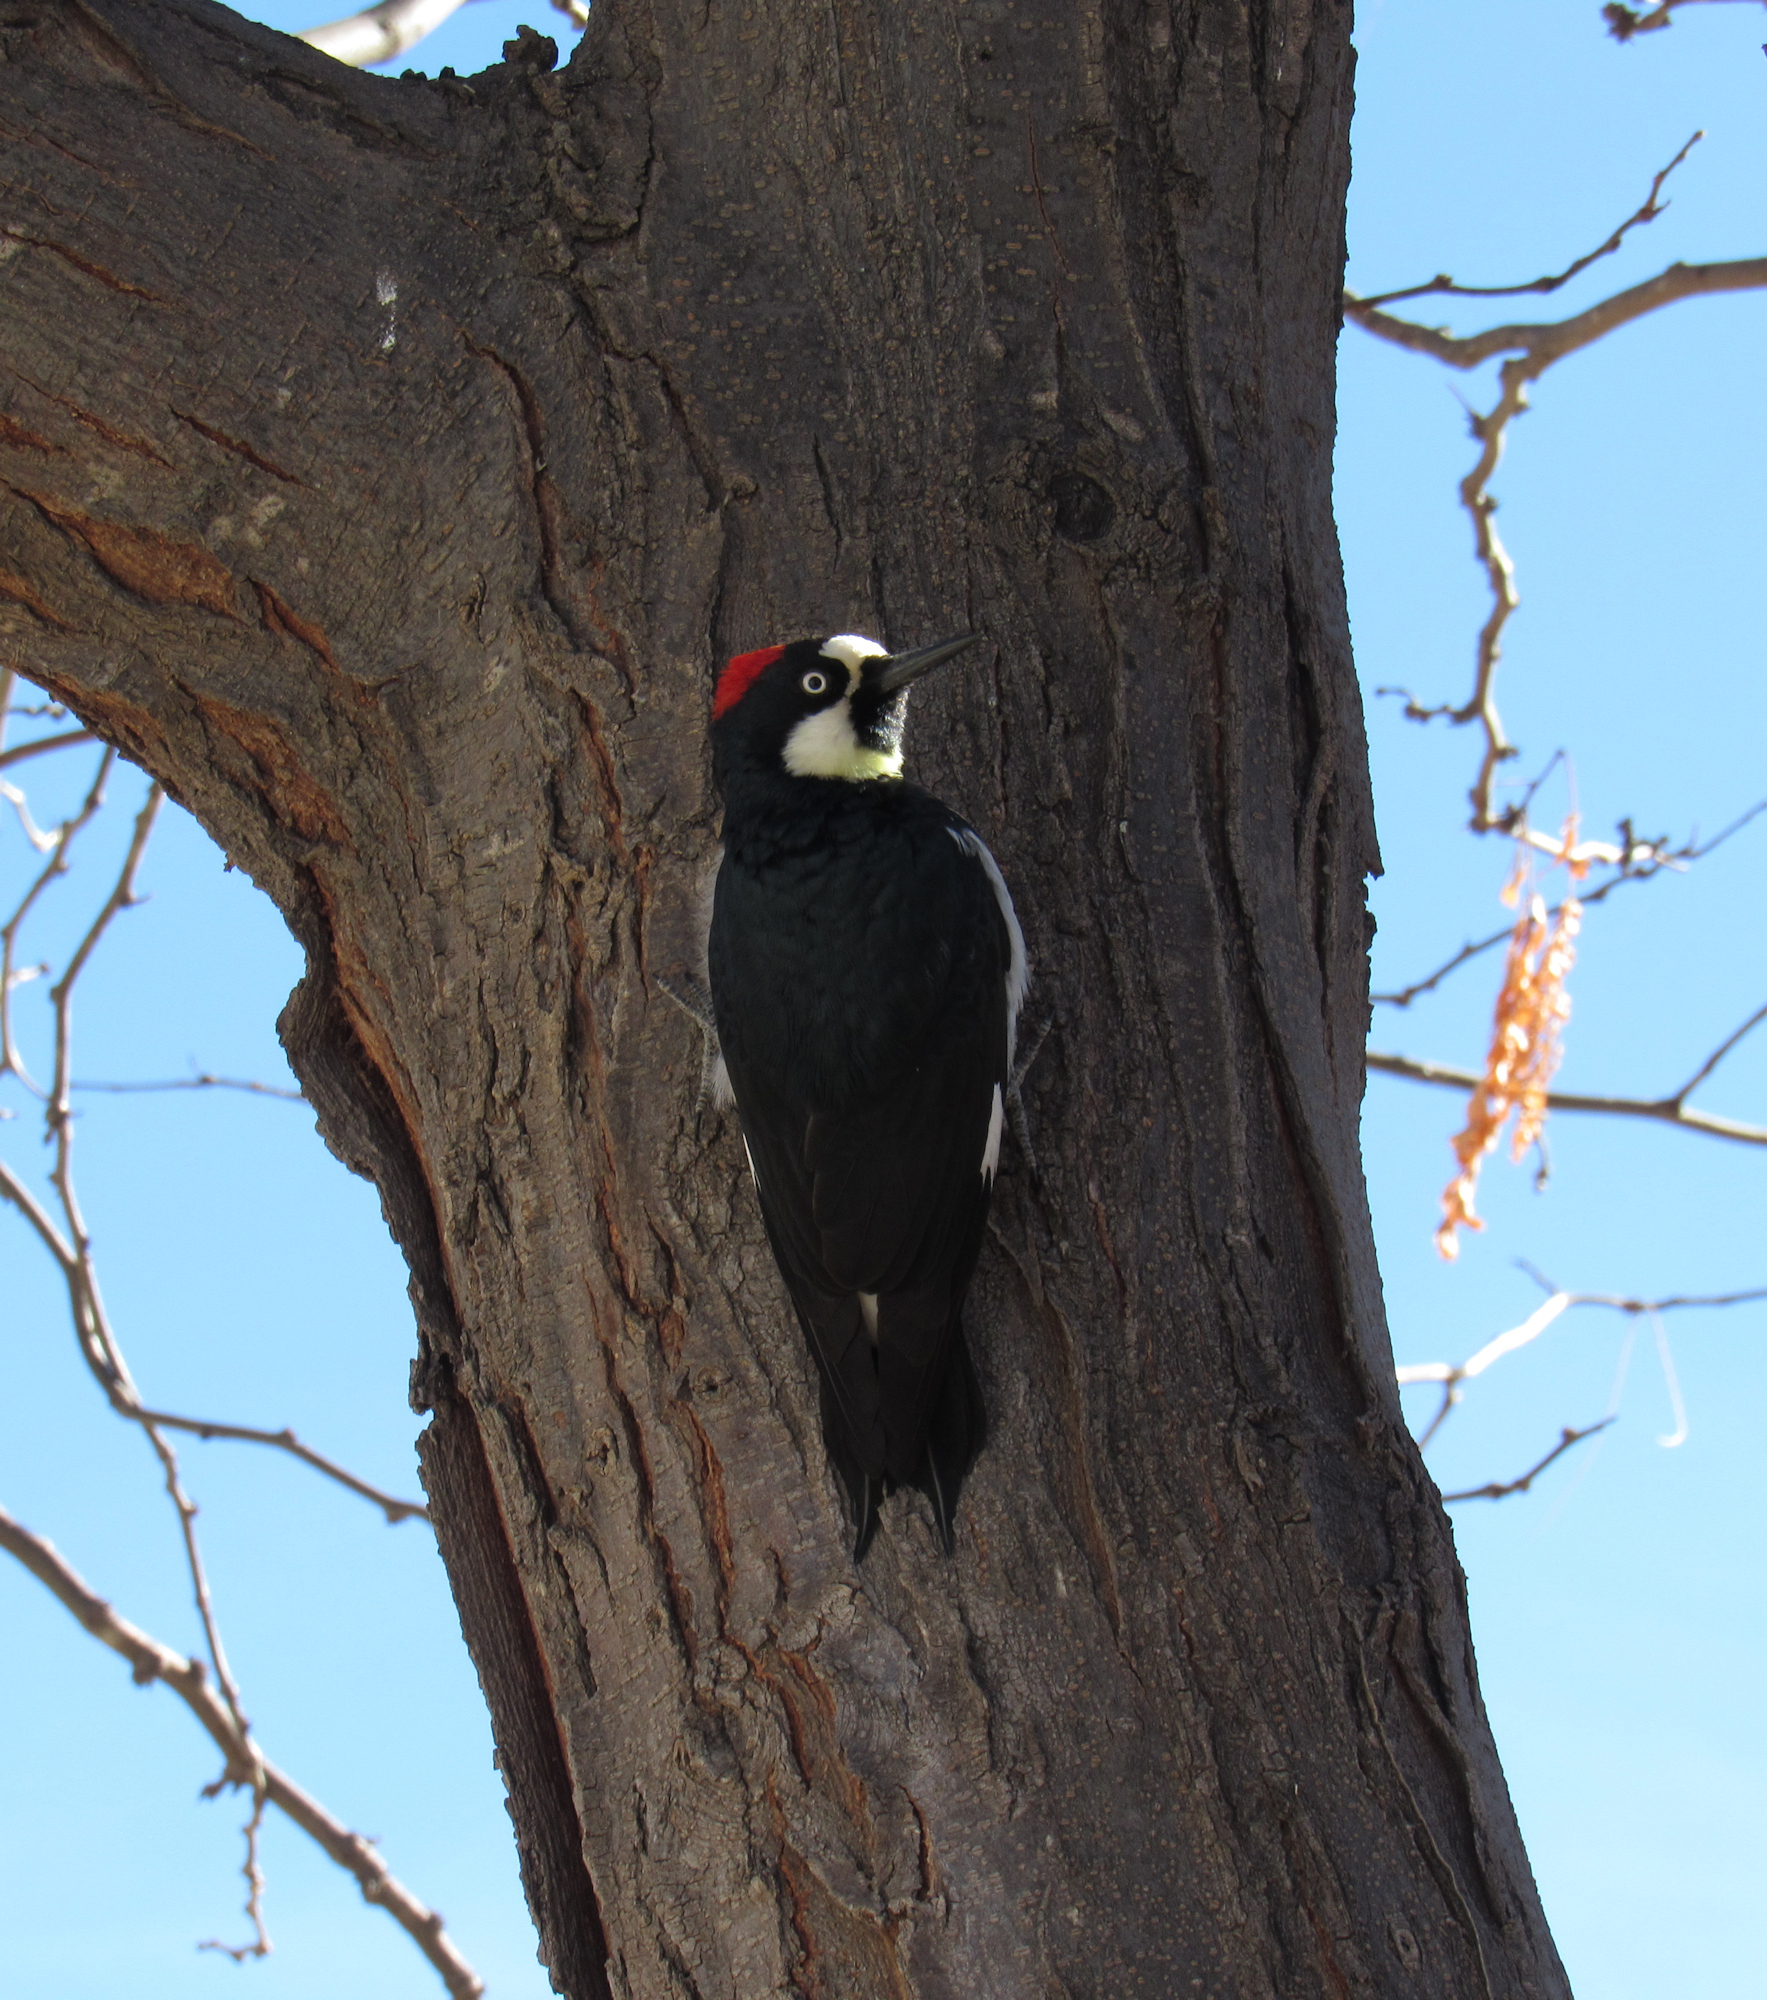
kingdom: Animalia
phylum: Chordata
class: Aves
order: Piciformes
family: Picidae
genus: Melanerpes
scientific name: Melanerpes formicivorus
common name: Acorn woodpecker
